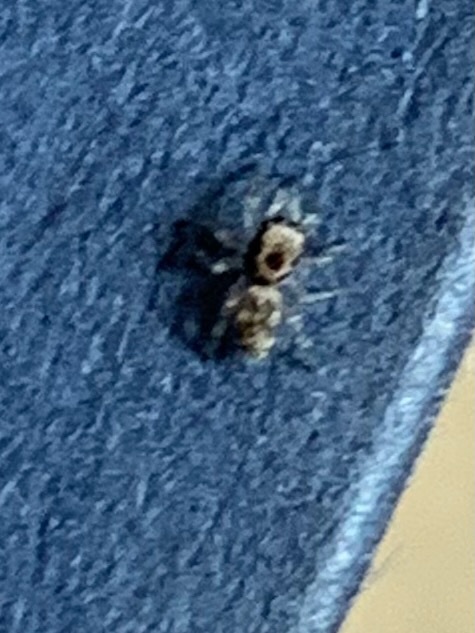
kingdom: Animalia
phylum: Arthropoda
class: Arachnida
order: Araneae
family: Salticidae
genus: Salticus
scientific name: Salticus scenicus
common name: Zebra jumper
